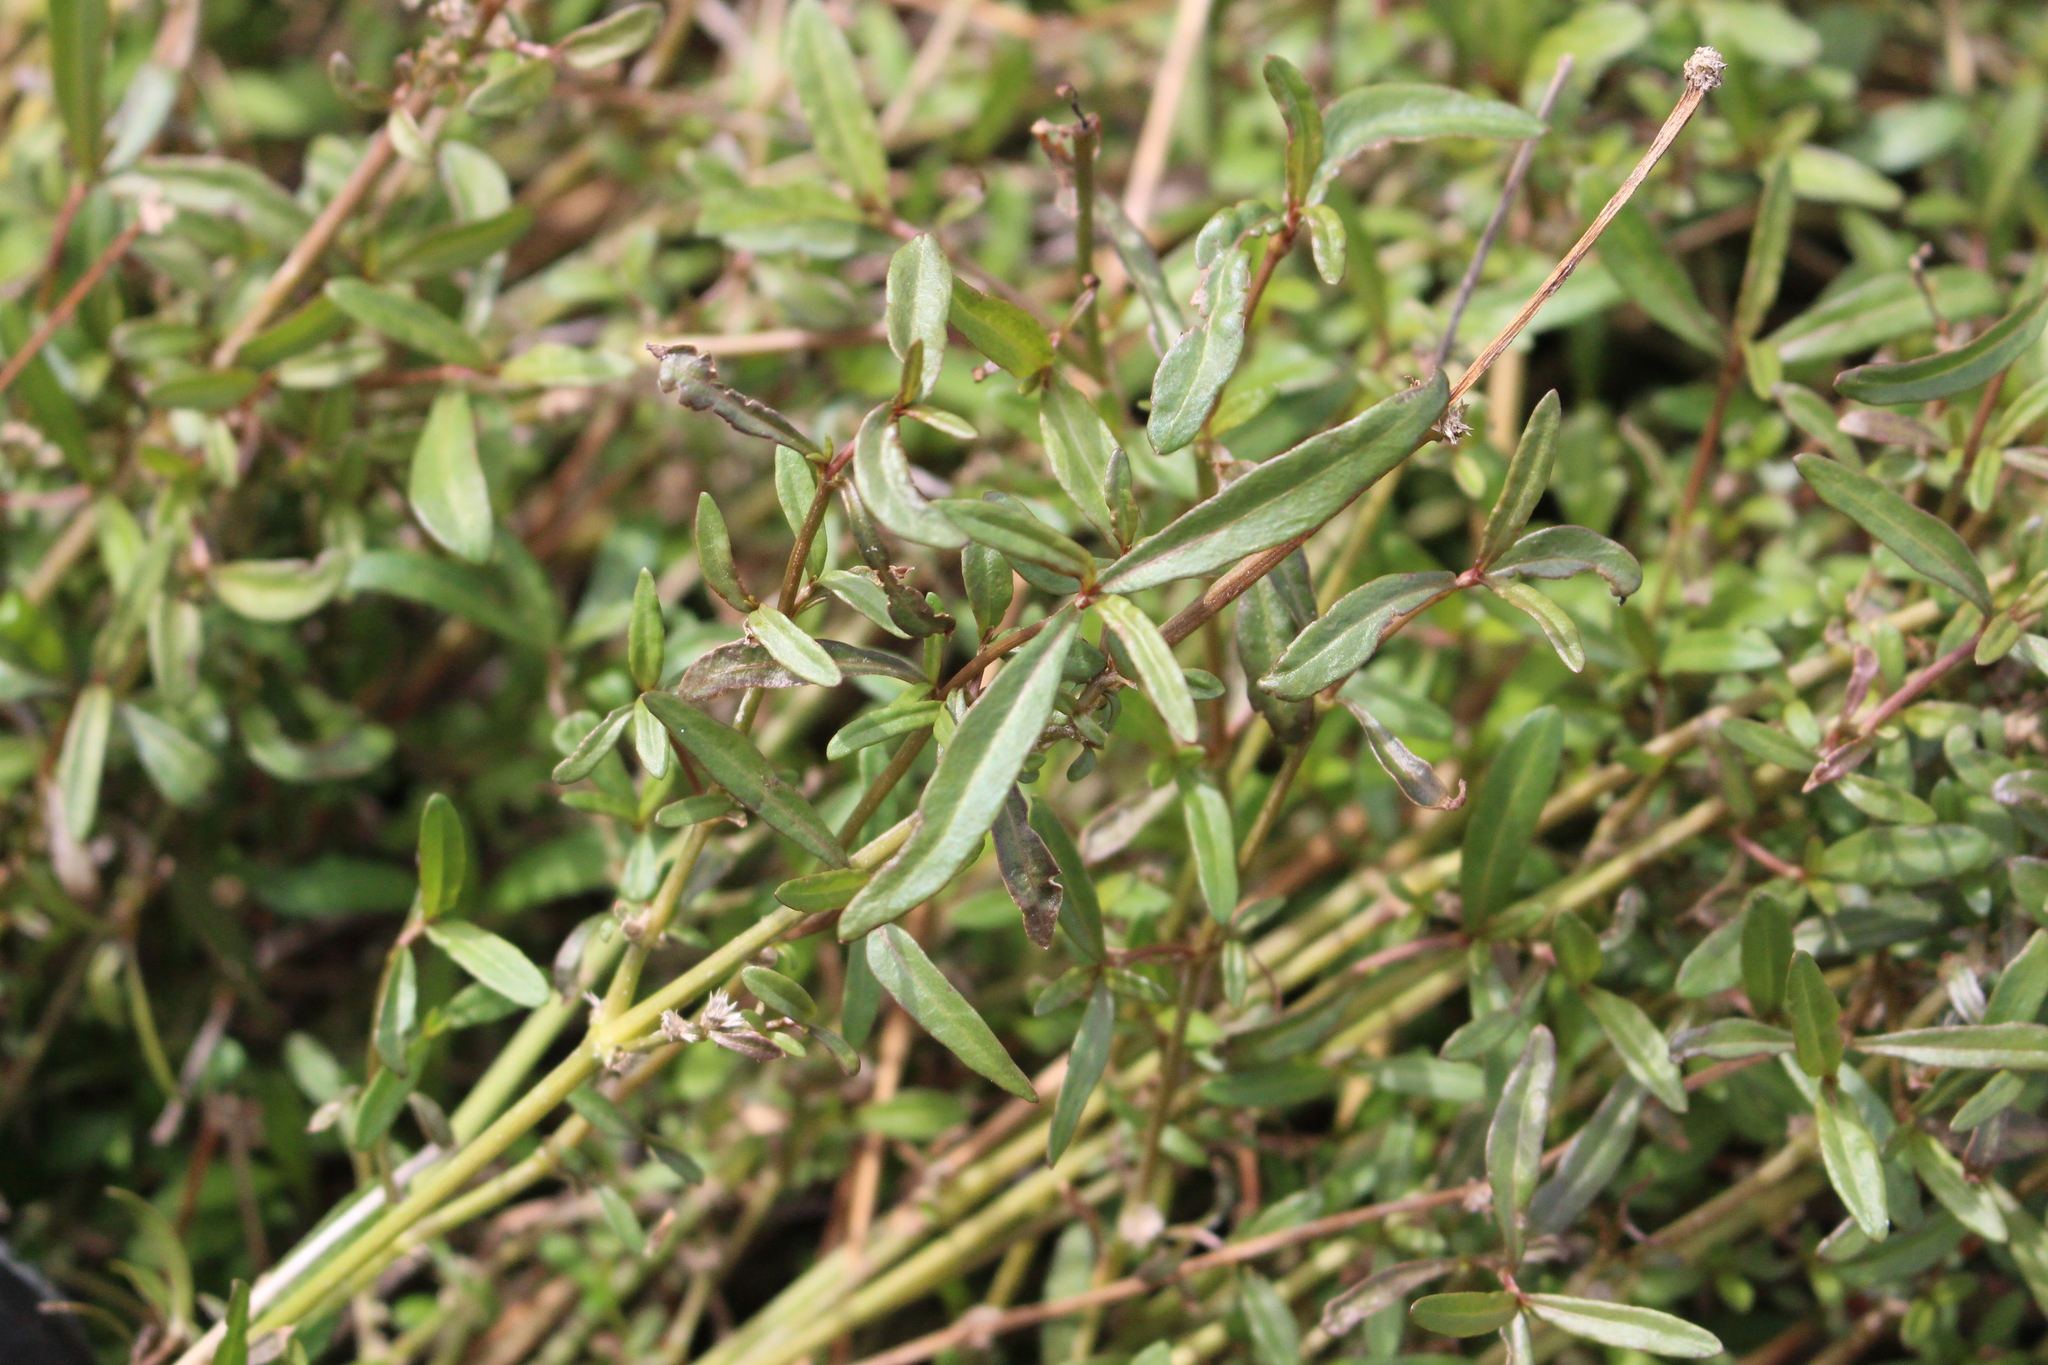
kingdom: Plantae
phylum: Tracheophyta
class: Magnoliopsida
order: Caryophyllales
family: Amaranthaceae
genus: Alternanthera
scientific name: Alternanthera nahui
